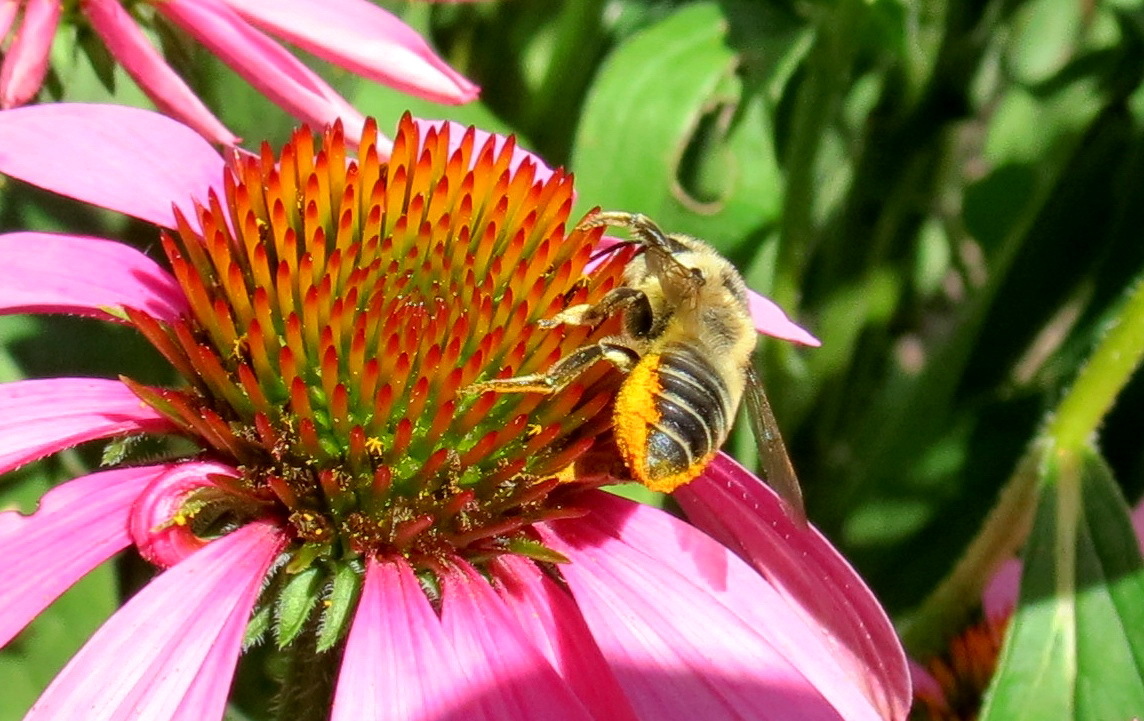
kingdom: Animalia
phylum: Arthropoda
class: Insecta
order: Hymenoptera
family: Megachilidae
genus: Megachile
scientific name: Megachile latimanus
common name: Leafcutting bee
